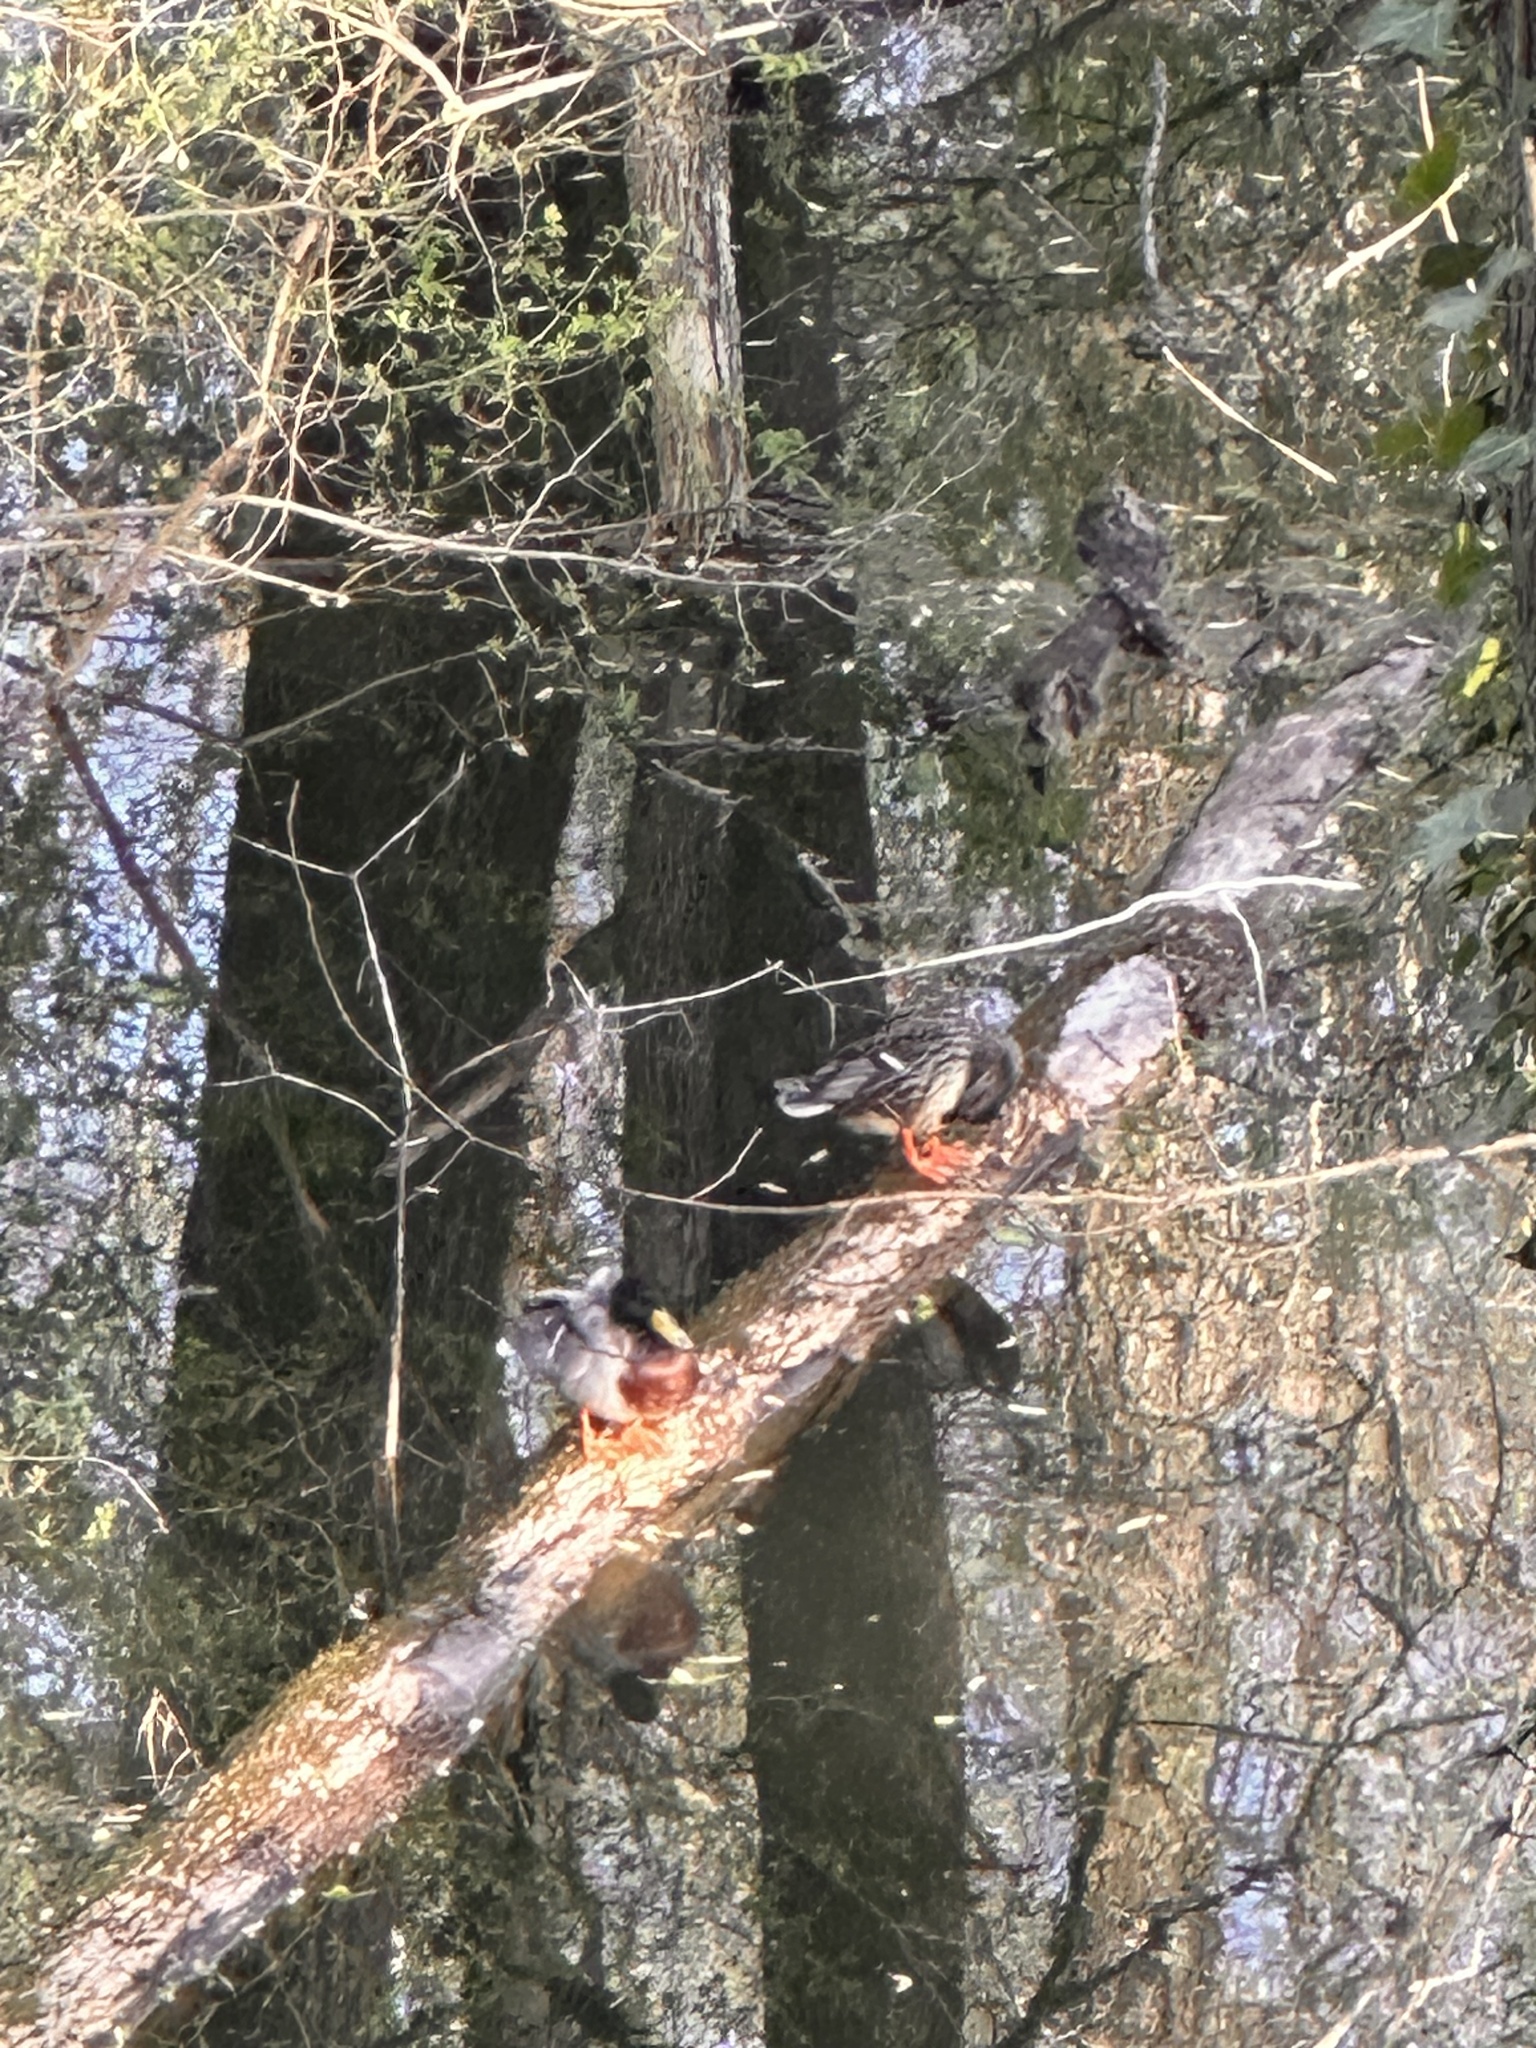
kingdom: Animalia
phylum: Chordata
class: Aves
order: Anseriformes
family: Anatidae
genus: Anas
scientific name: Anas platyrhynchos
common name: Mallard
